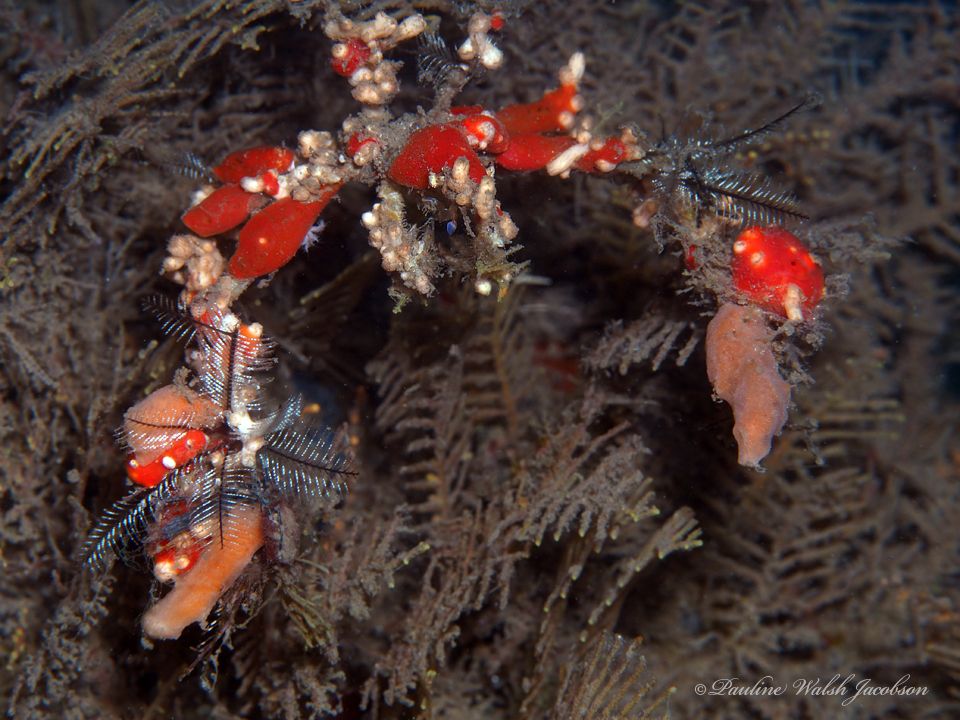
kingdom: Animalia
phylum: Arthropoda
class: Malacostraca
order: Decapoda
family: Inachidae
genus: Podochela
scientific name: Podochela
